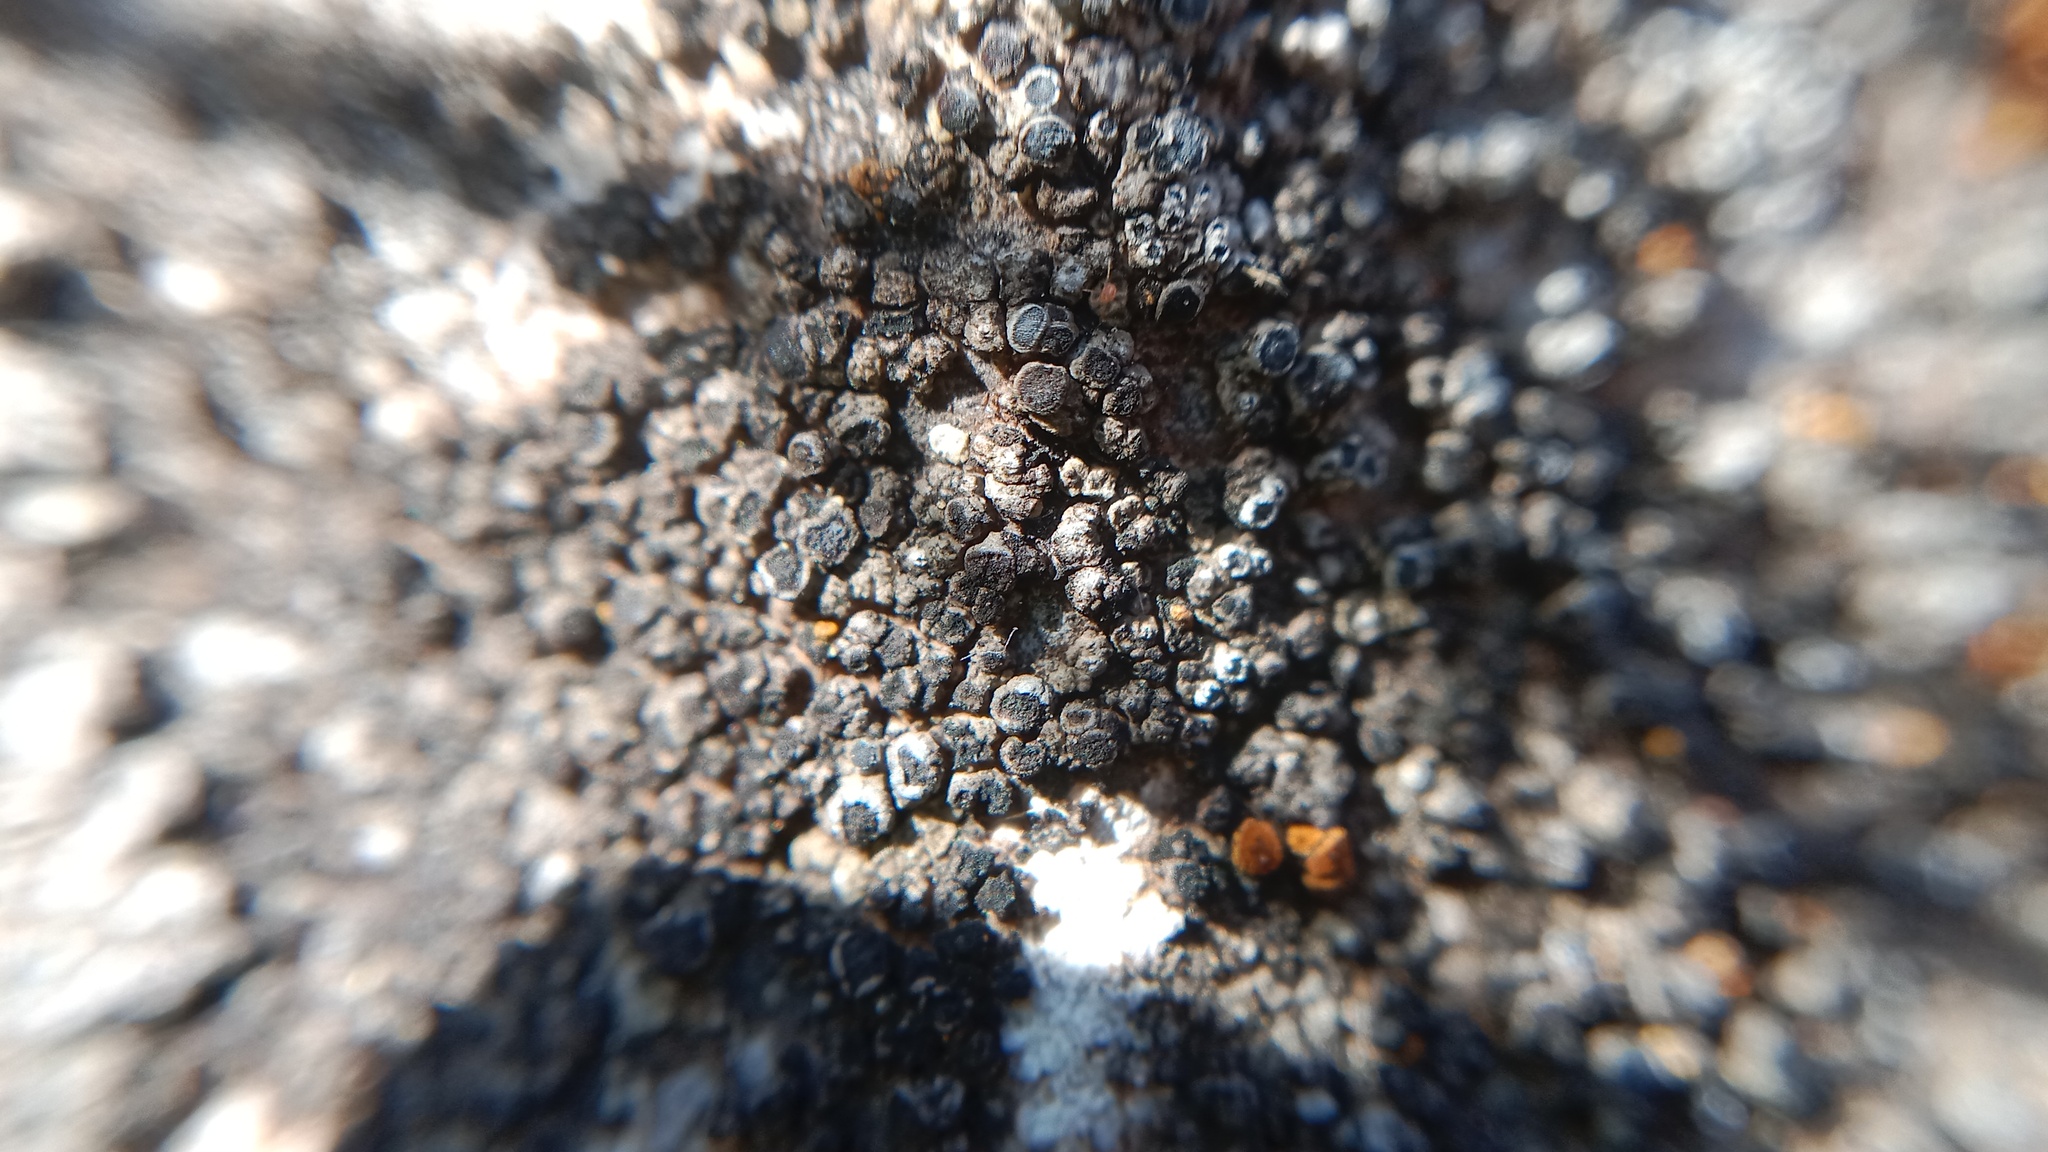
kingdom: Fungi
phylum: Ascomycota
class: Lecanoromycetes
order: Teloschistales
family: Teloschistaceae
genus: Pyrenodesmia
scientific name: Pyrenodesmia variabilis
